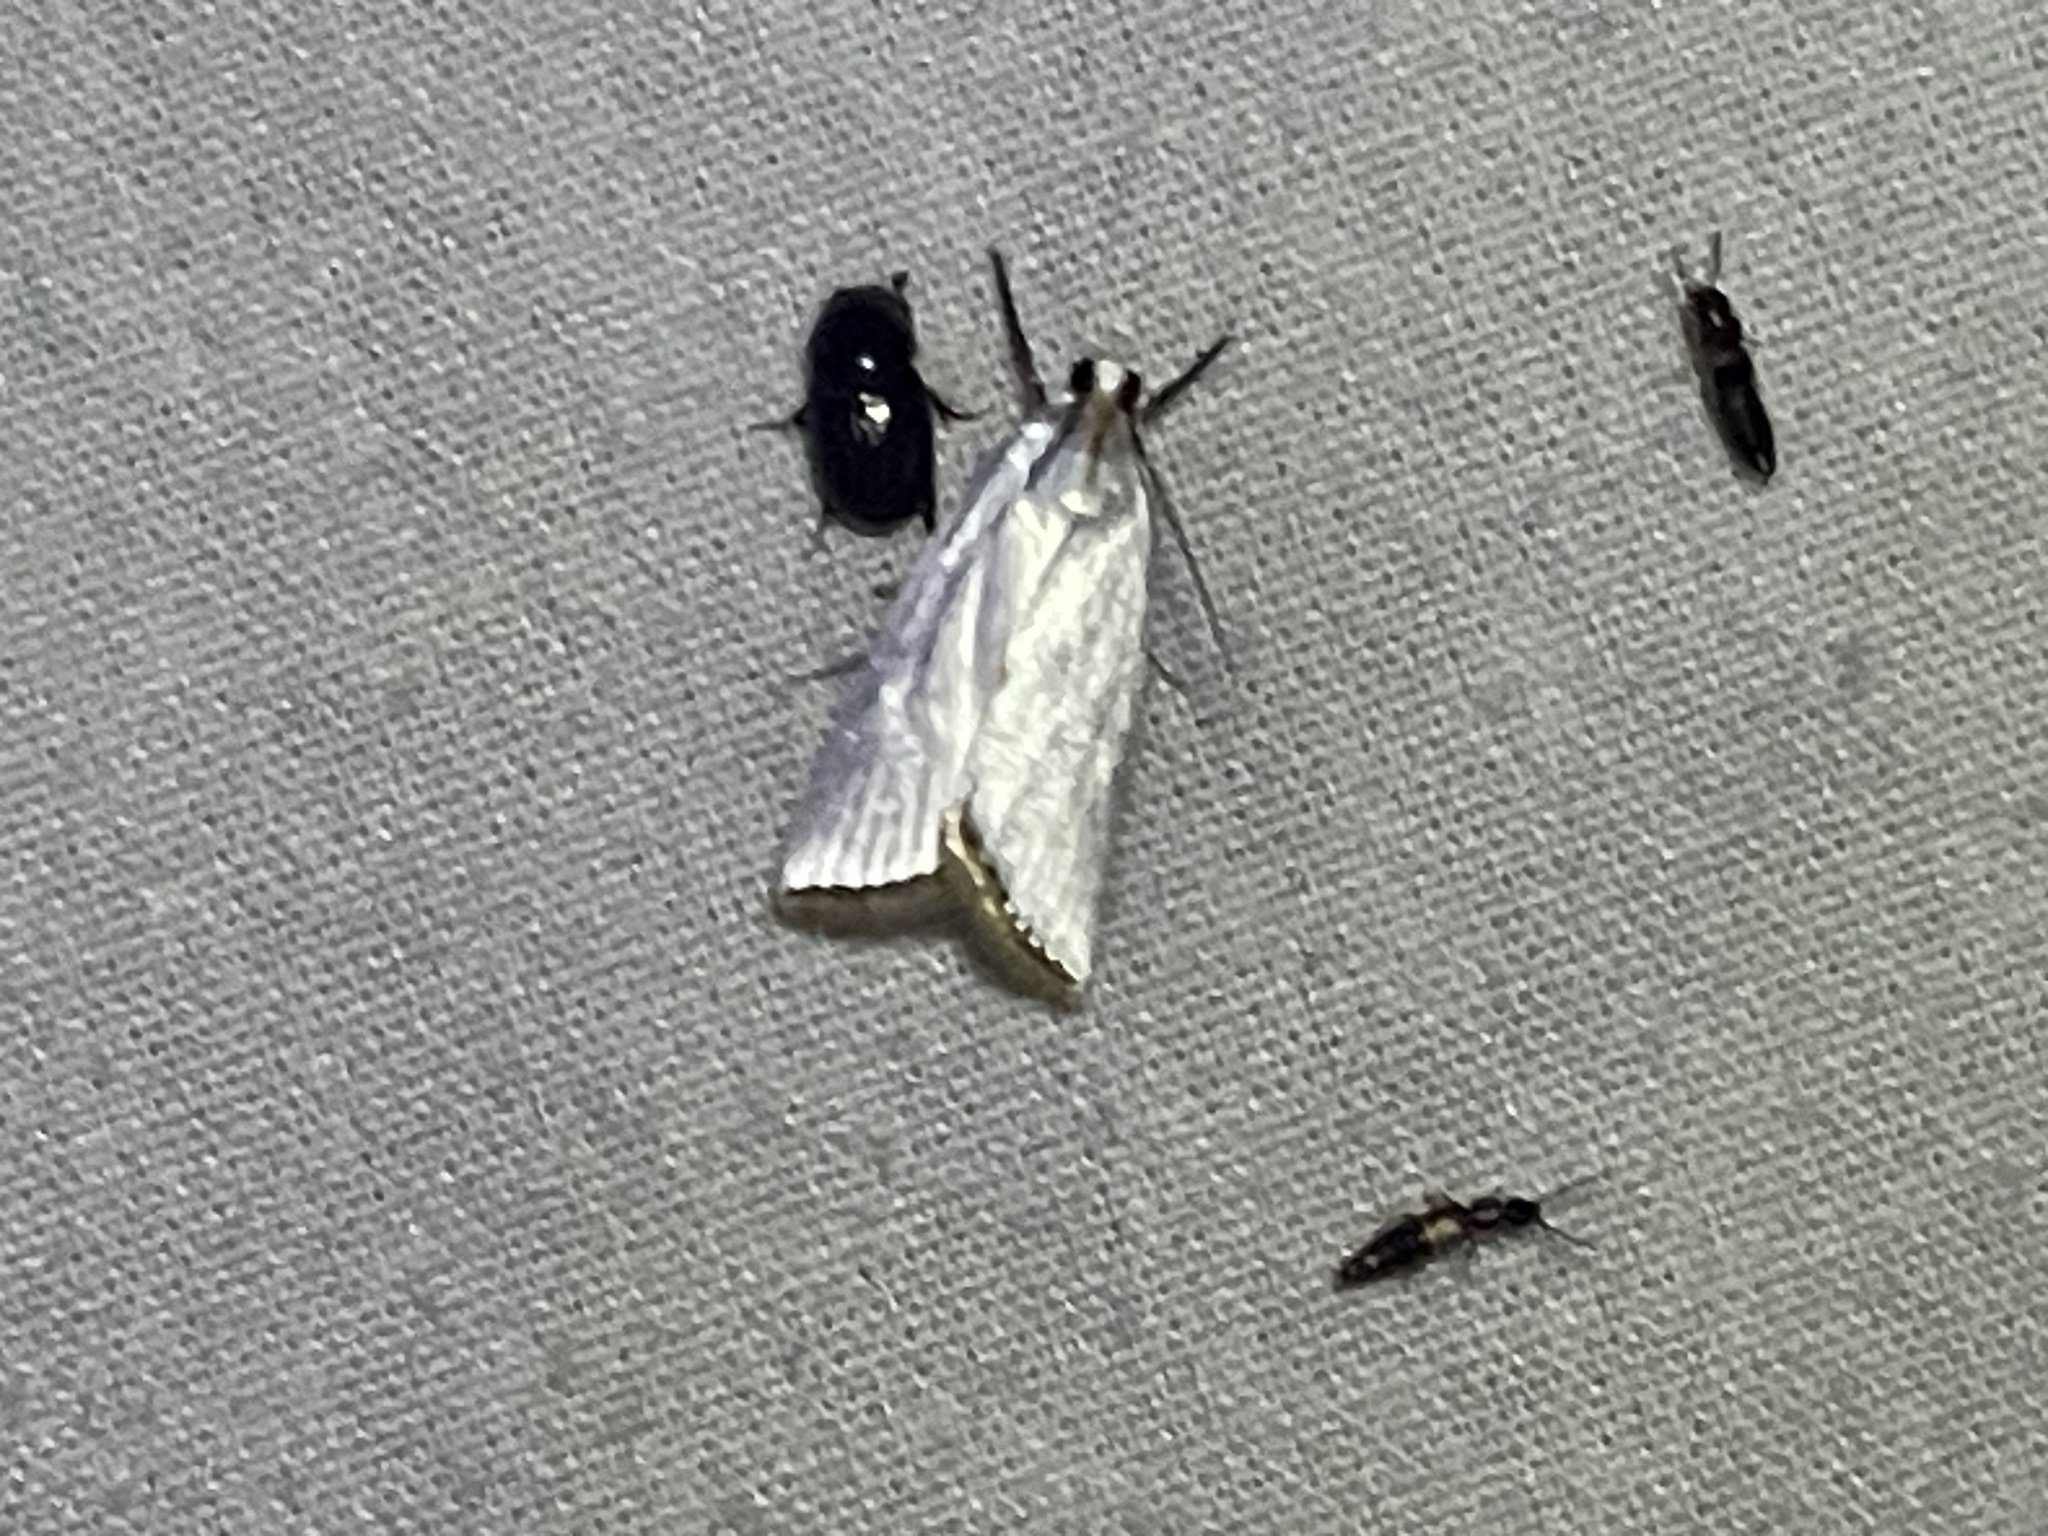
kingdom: Animalia
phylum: Arthropoda
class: Insecta
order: Lepidoptera
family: Crambidae
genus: Argyria
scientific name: Argyria nivalis
